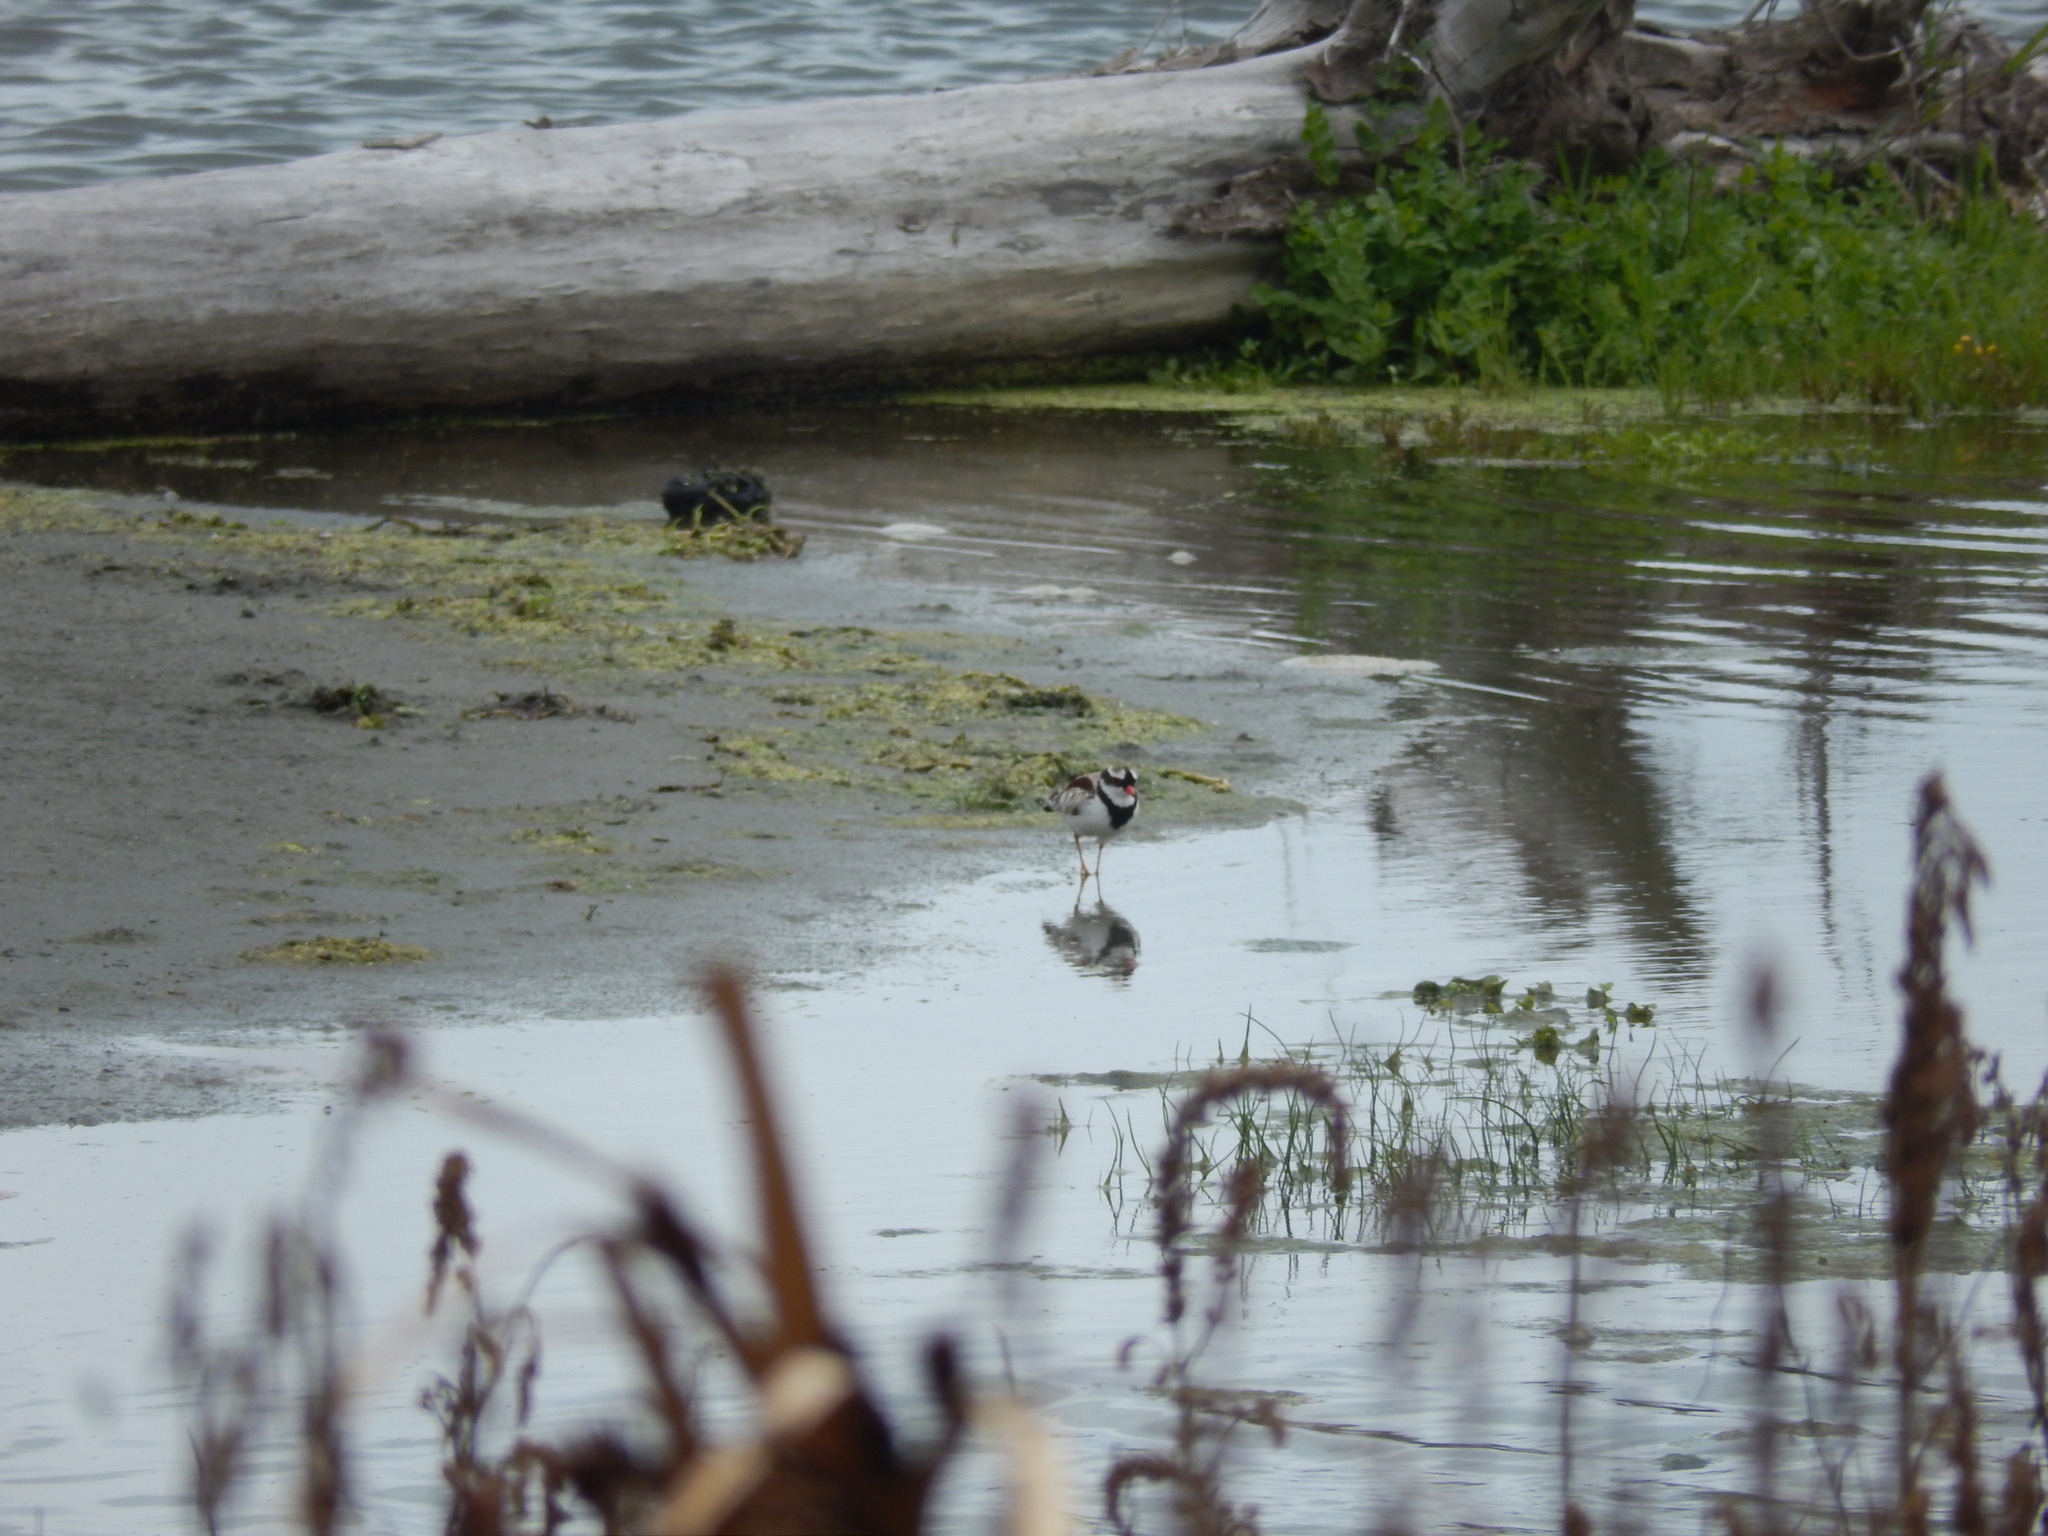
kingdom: Animalia
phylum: Chordata
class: Aves
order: Charadriiformes
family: Charadriidae
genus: Elseyornis
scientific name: Elseyornis melanops
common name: Black-fronted dotterel
